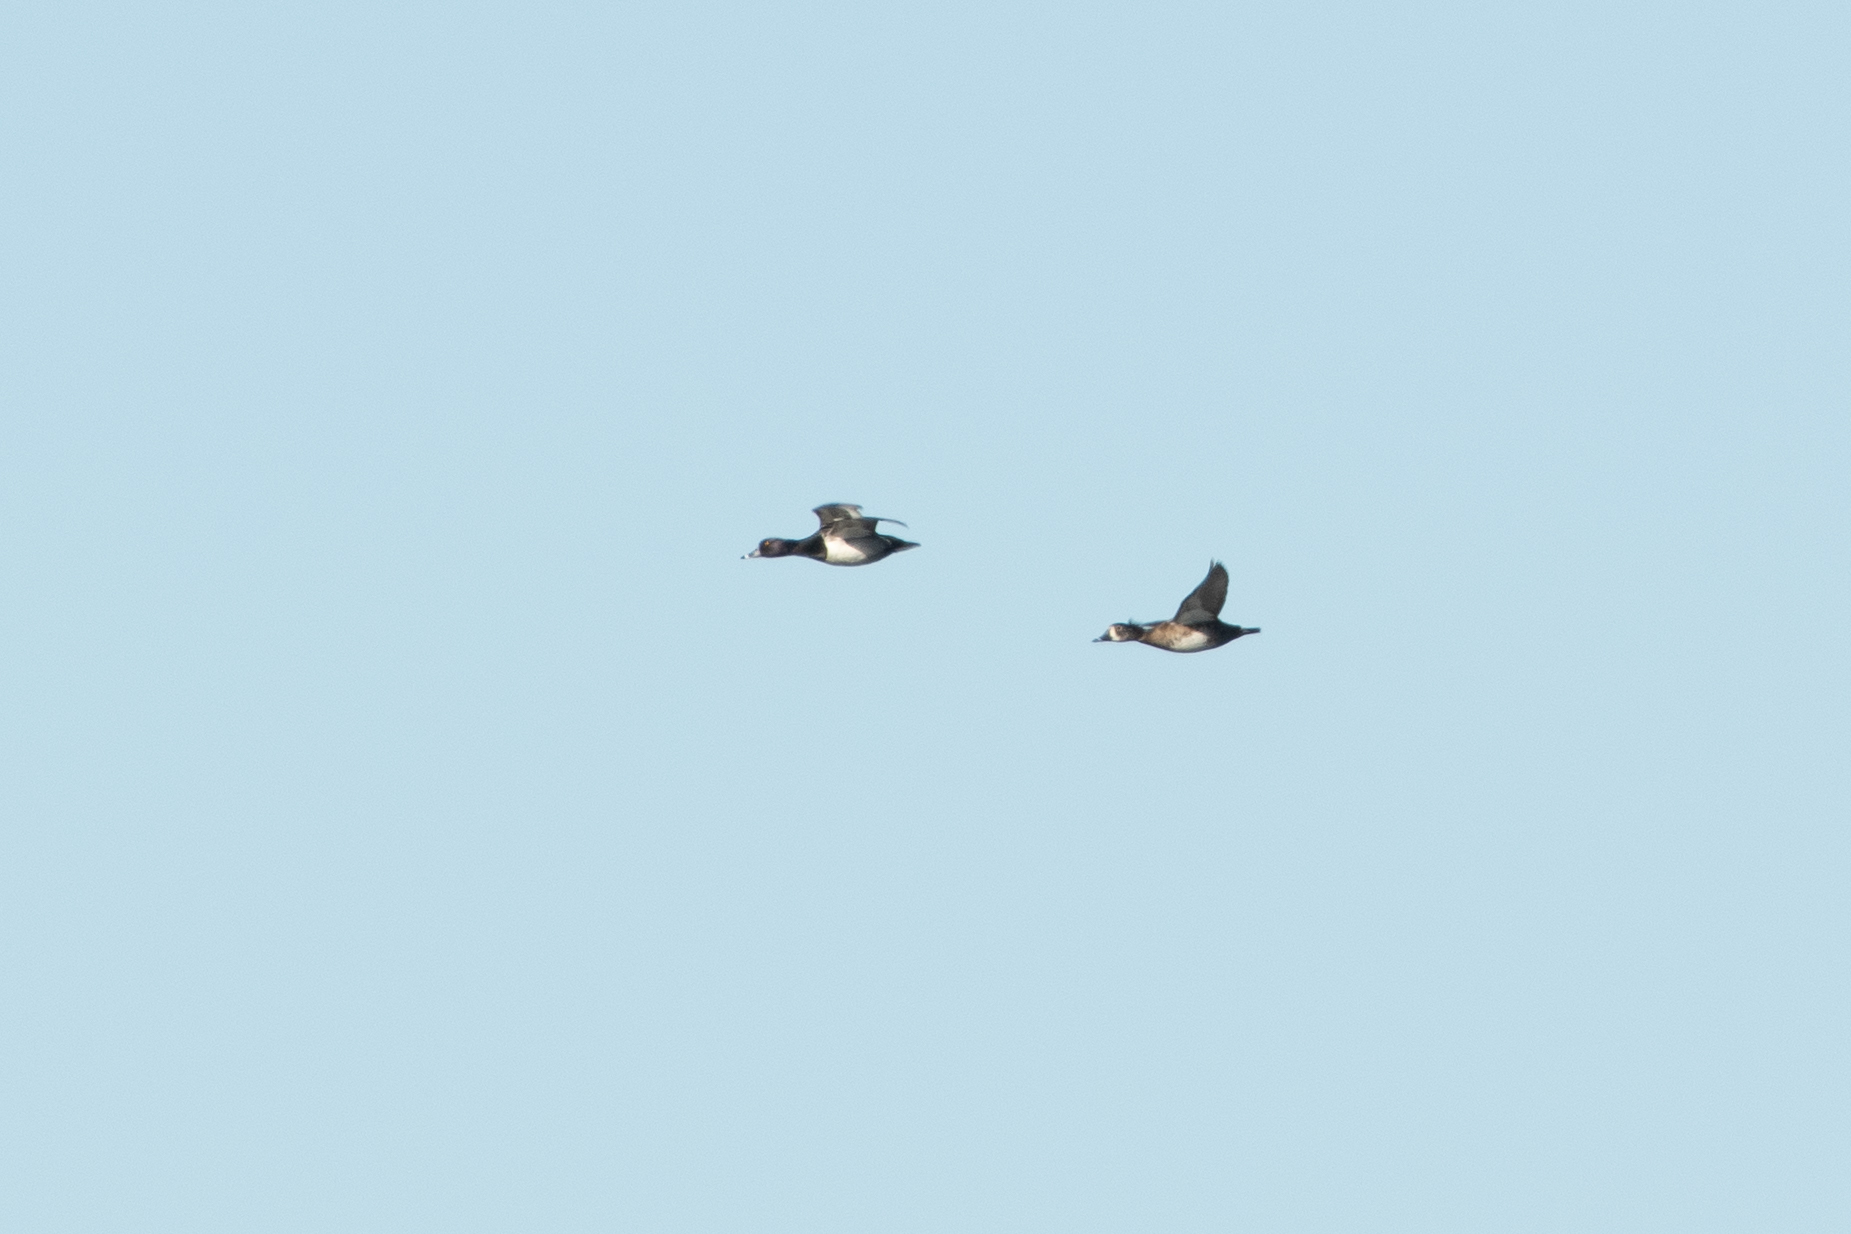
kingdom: Animalia
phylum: Chordata
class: Aves
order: Anseriformes
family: Anatidae
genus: Aythya
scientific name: Aythya collaris
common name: Ring-necked duck
